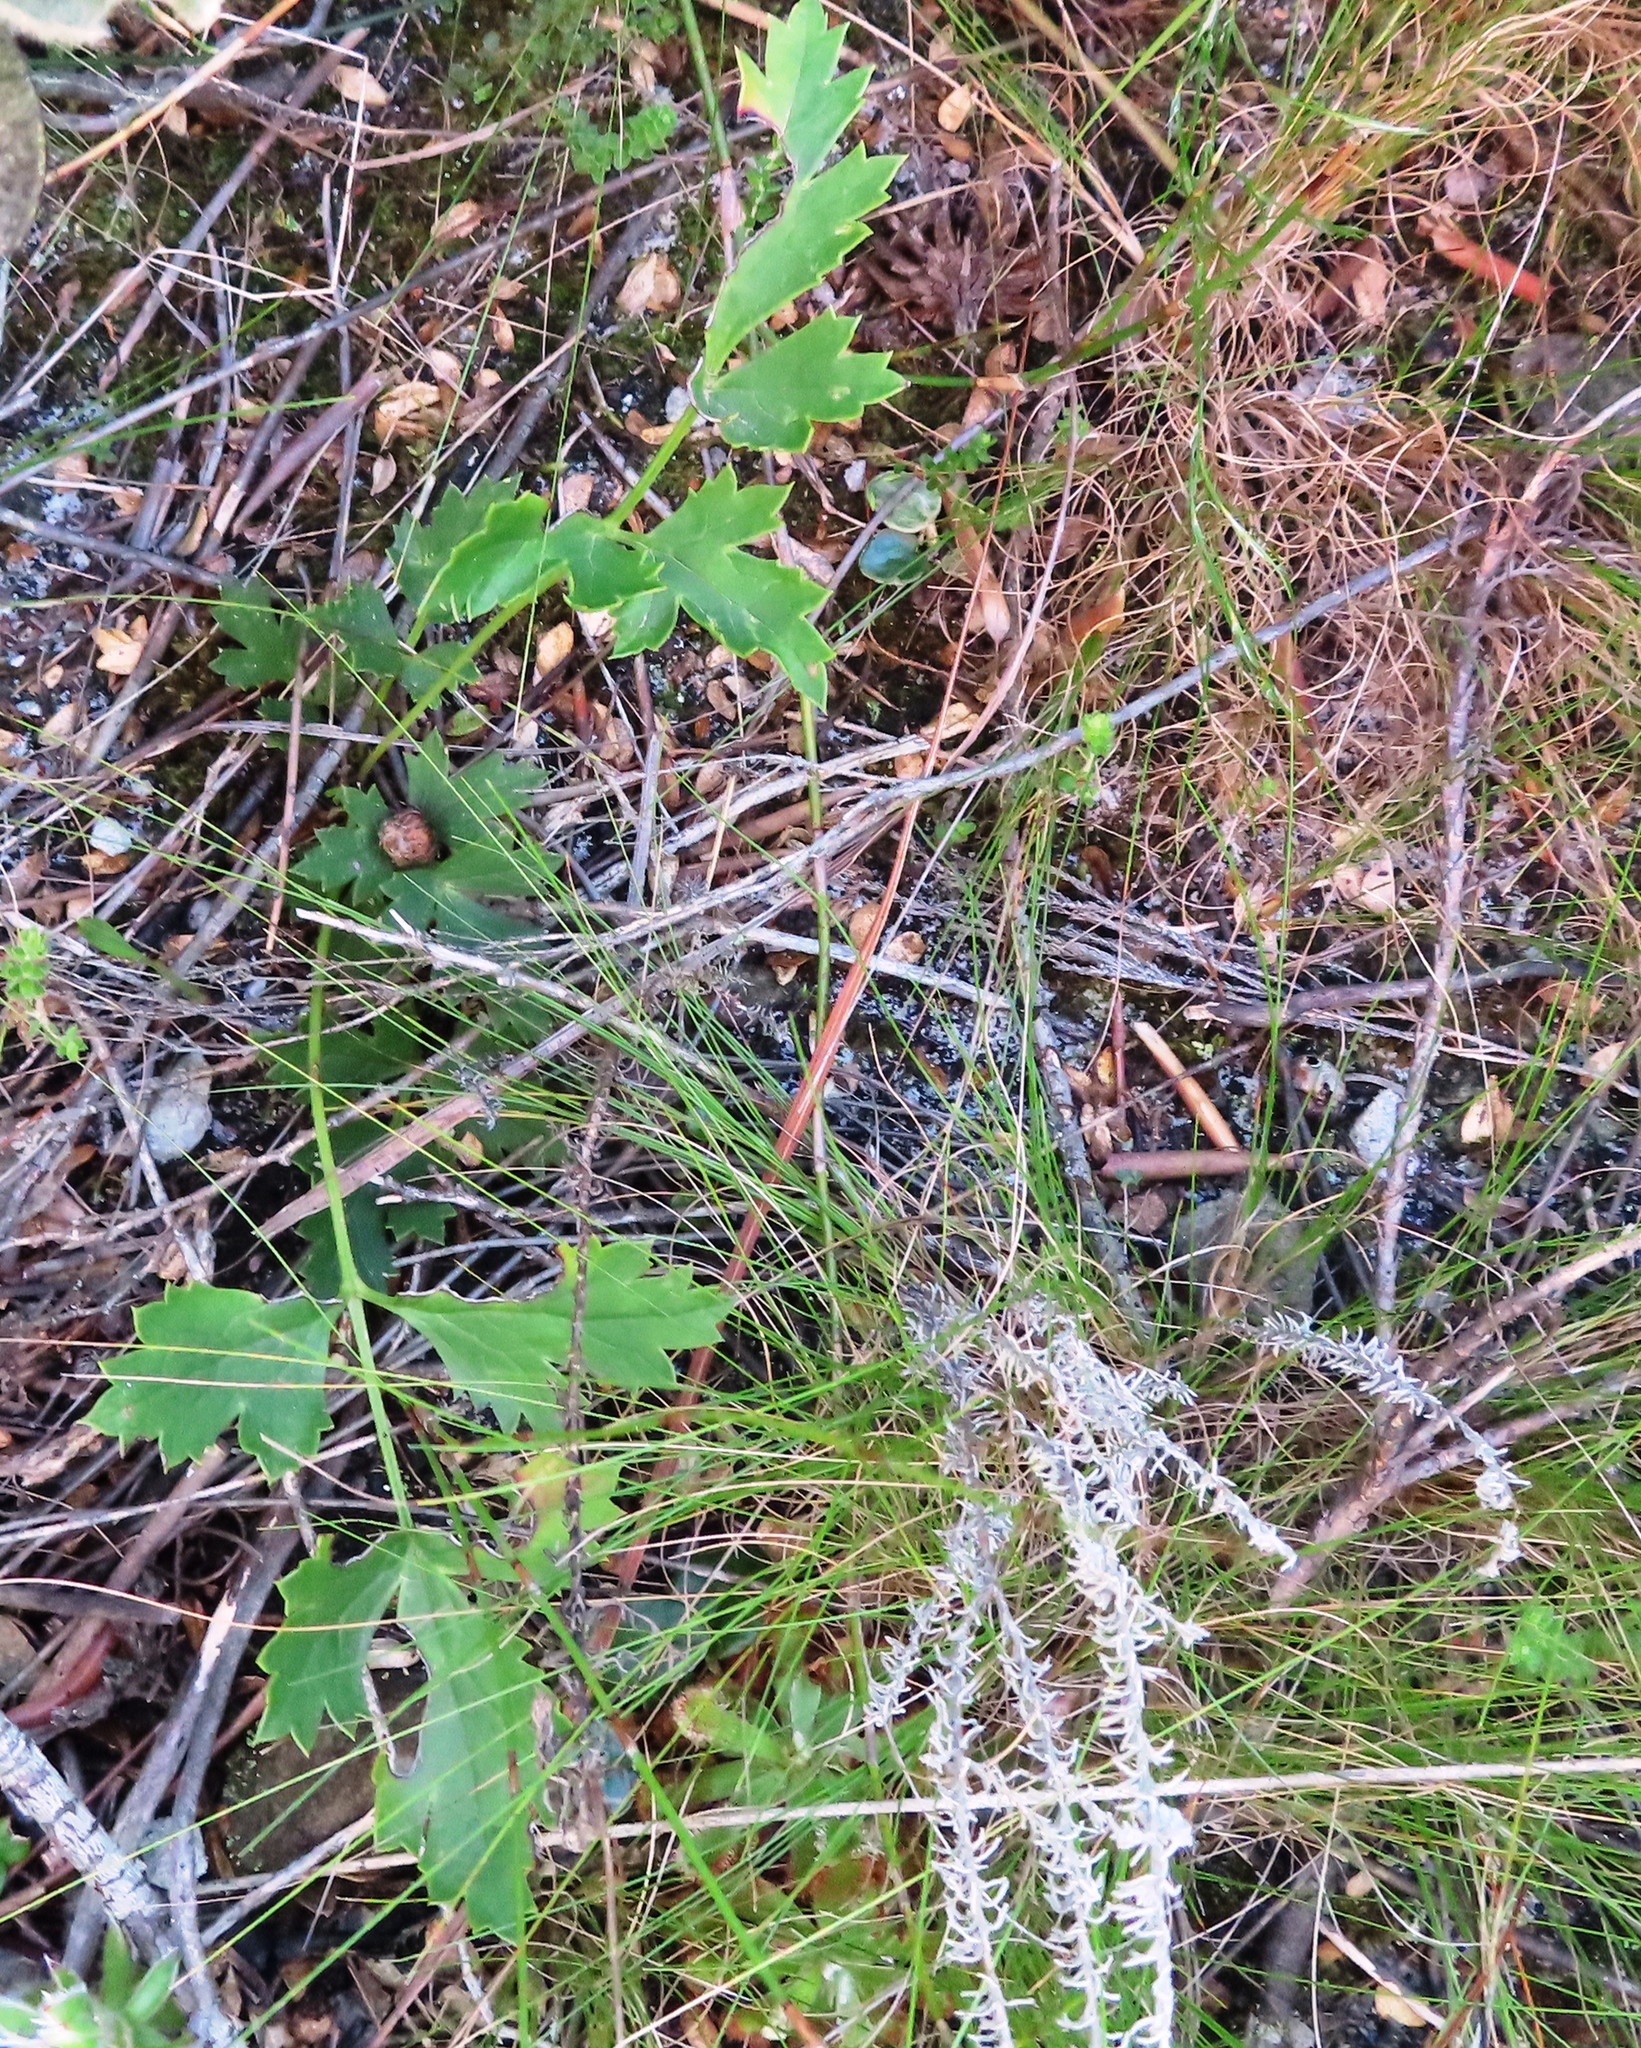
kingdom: Plantae
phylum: Tracheophyta
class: Magnoliopsida
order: Ranunculales
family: Ranunculaceae
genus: Knowltonia
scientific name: Knowltonia tenuifolia
